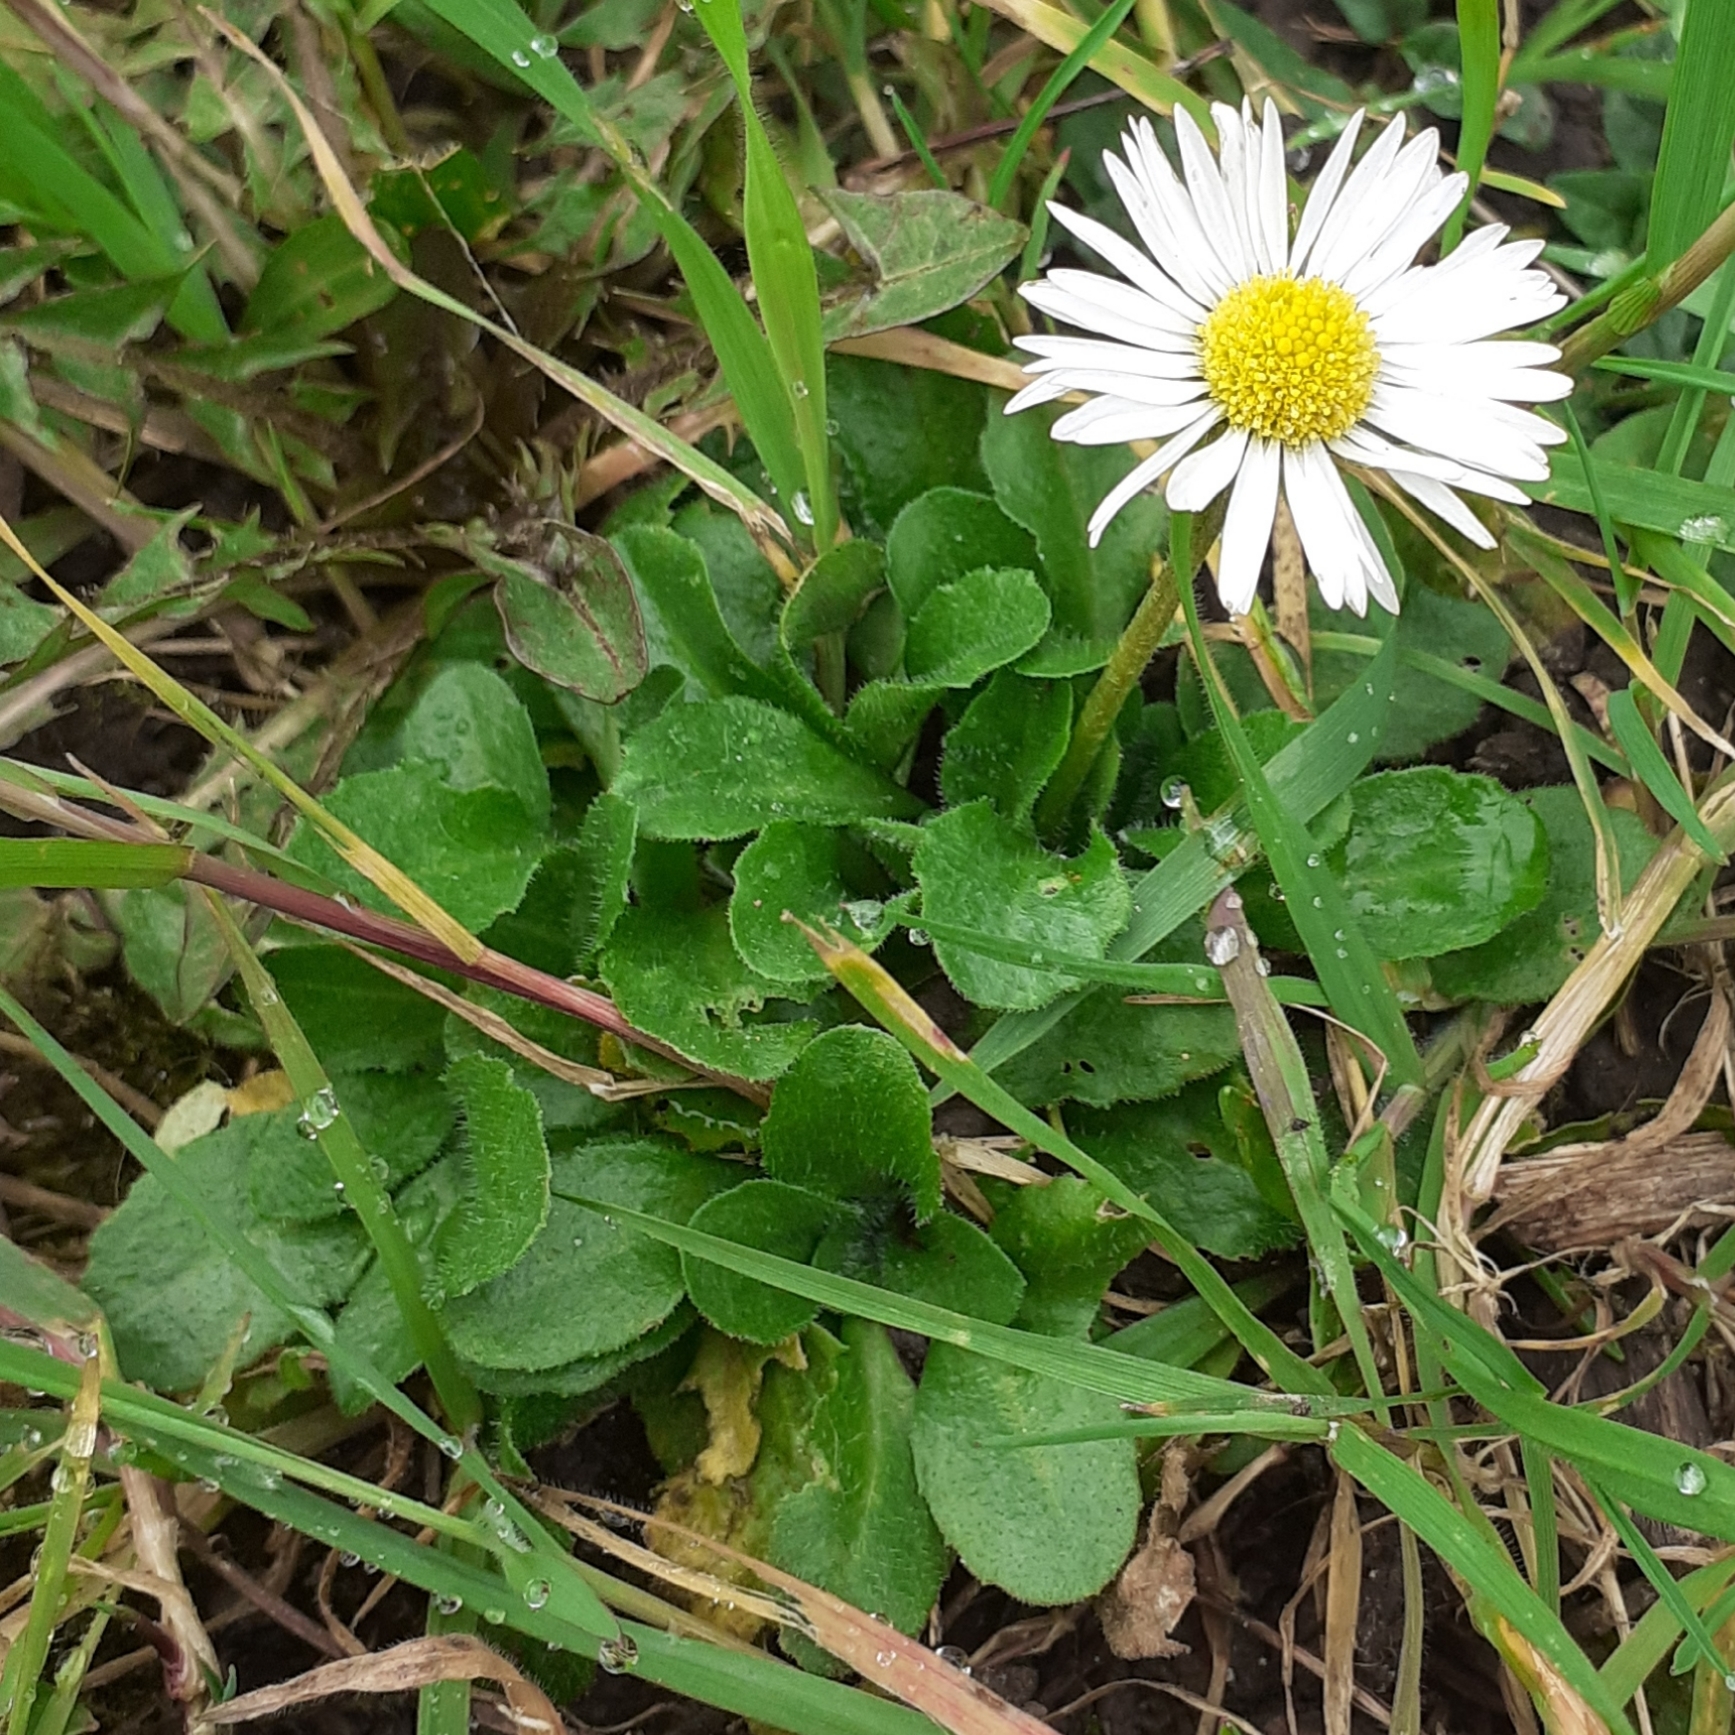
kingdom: Plantae
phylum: Tracheophyta
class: Magnoliopsida
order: Asterales
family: Asteraceae
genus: Bellis
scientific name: Bellis perennis
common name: Lawndaisy
